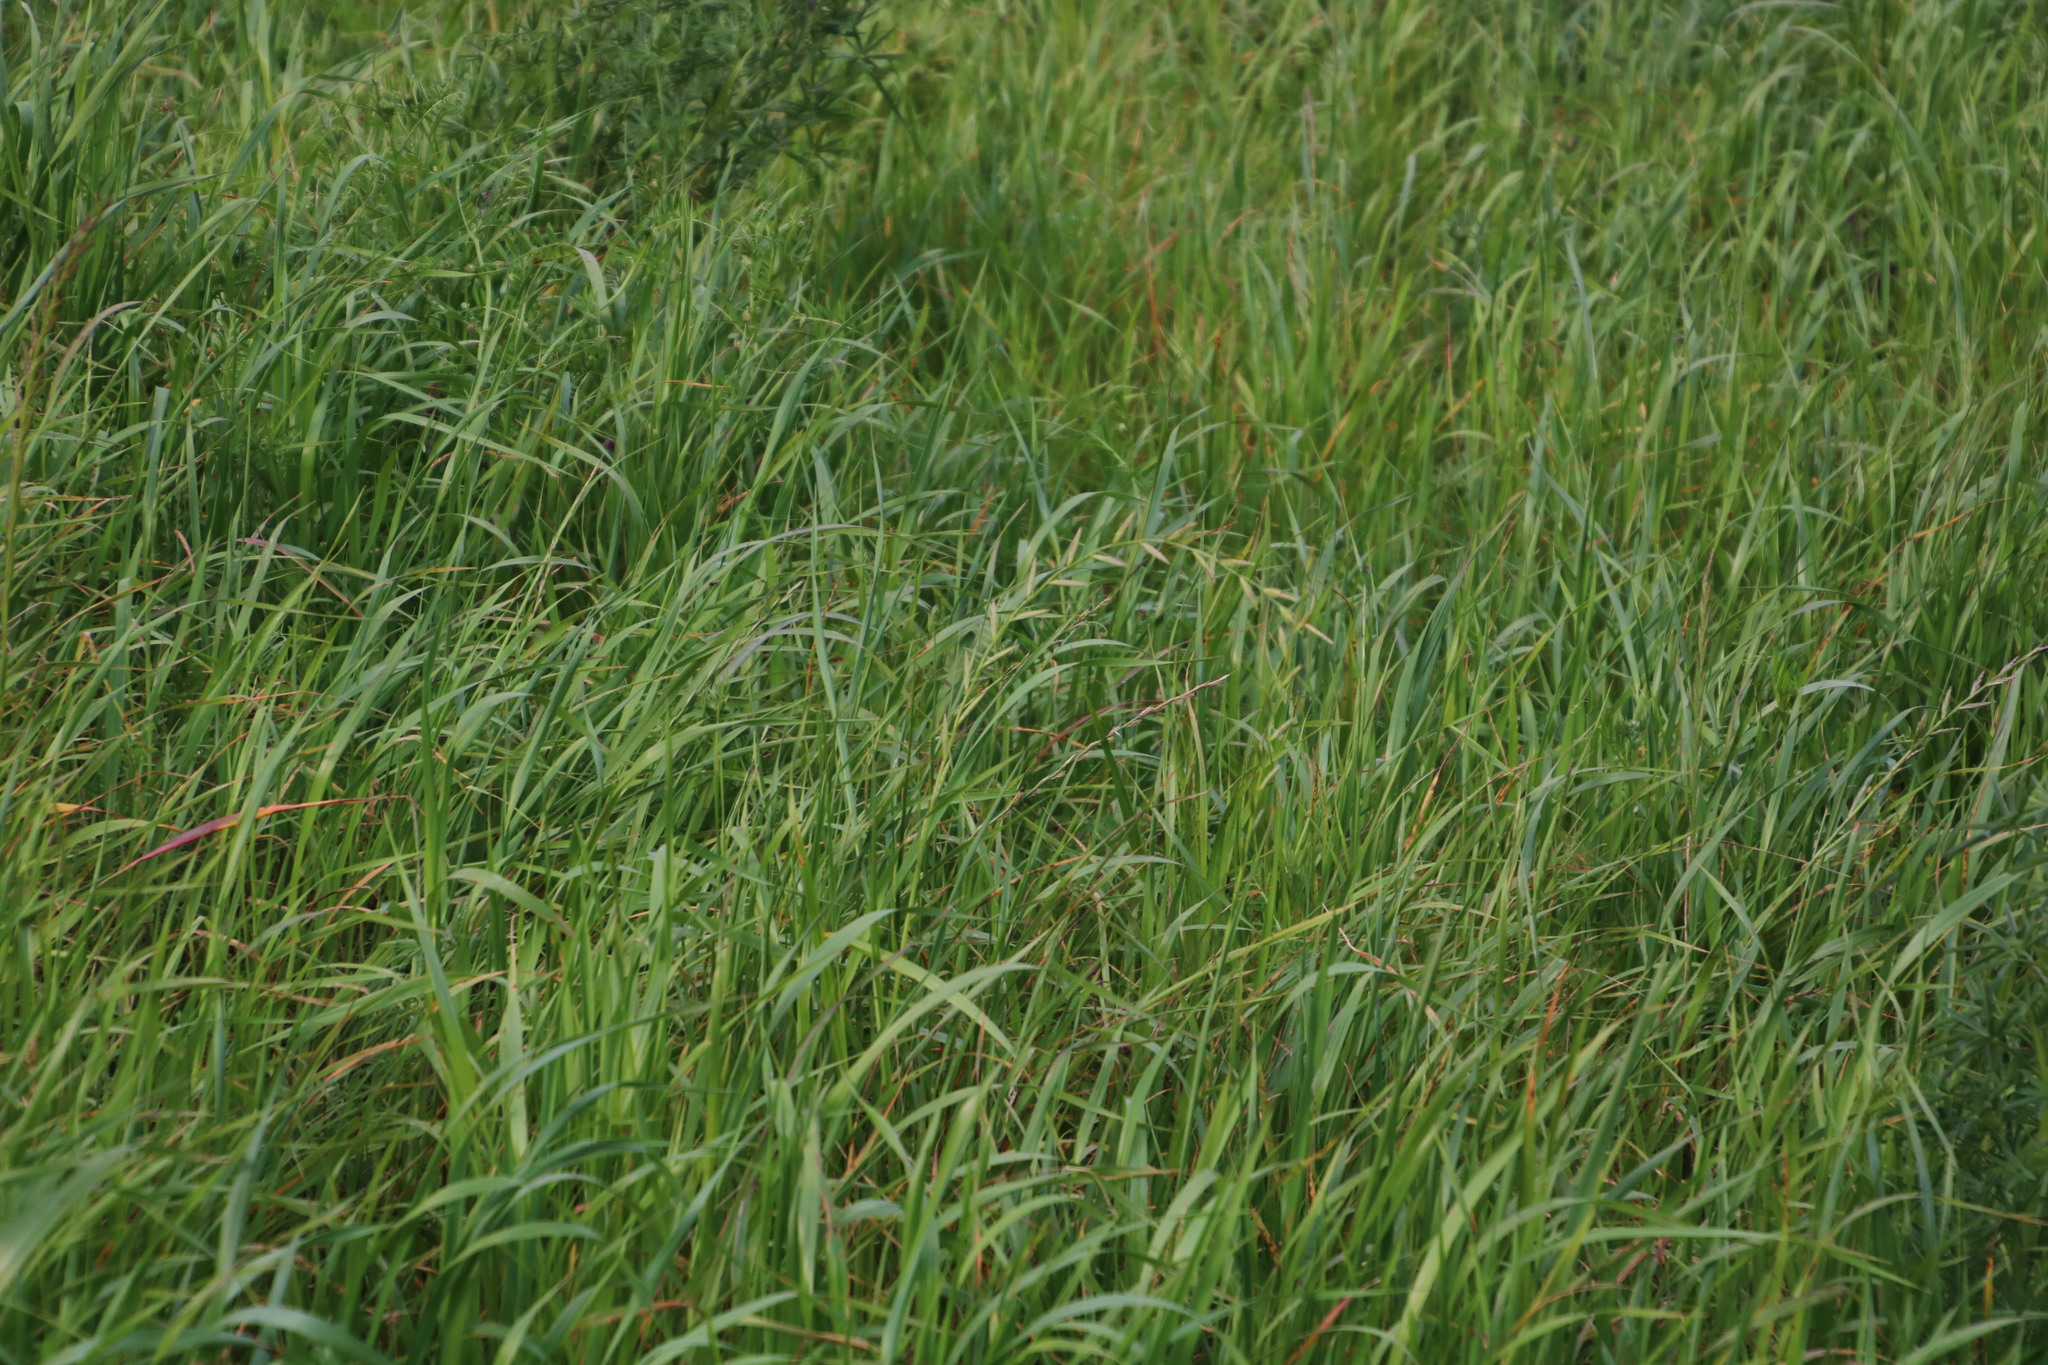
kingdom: Plantae
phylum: Tracheophyta
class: Liliopsida
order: Poales
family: Poaceae
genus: Lolium
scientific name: Lolium multiflorum
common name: Annual ryegrass
